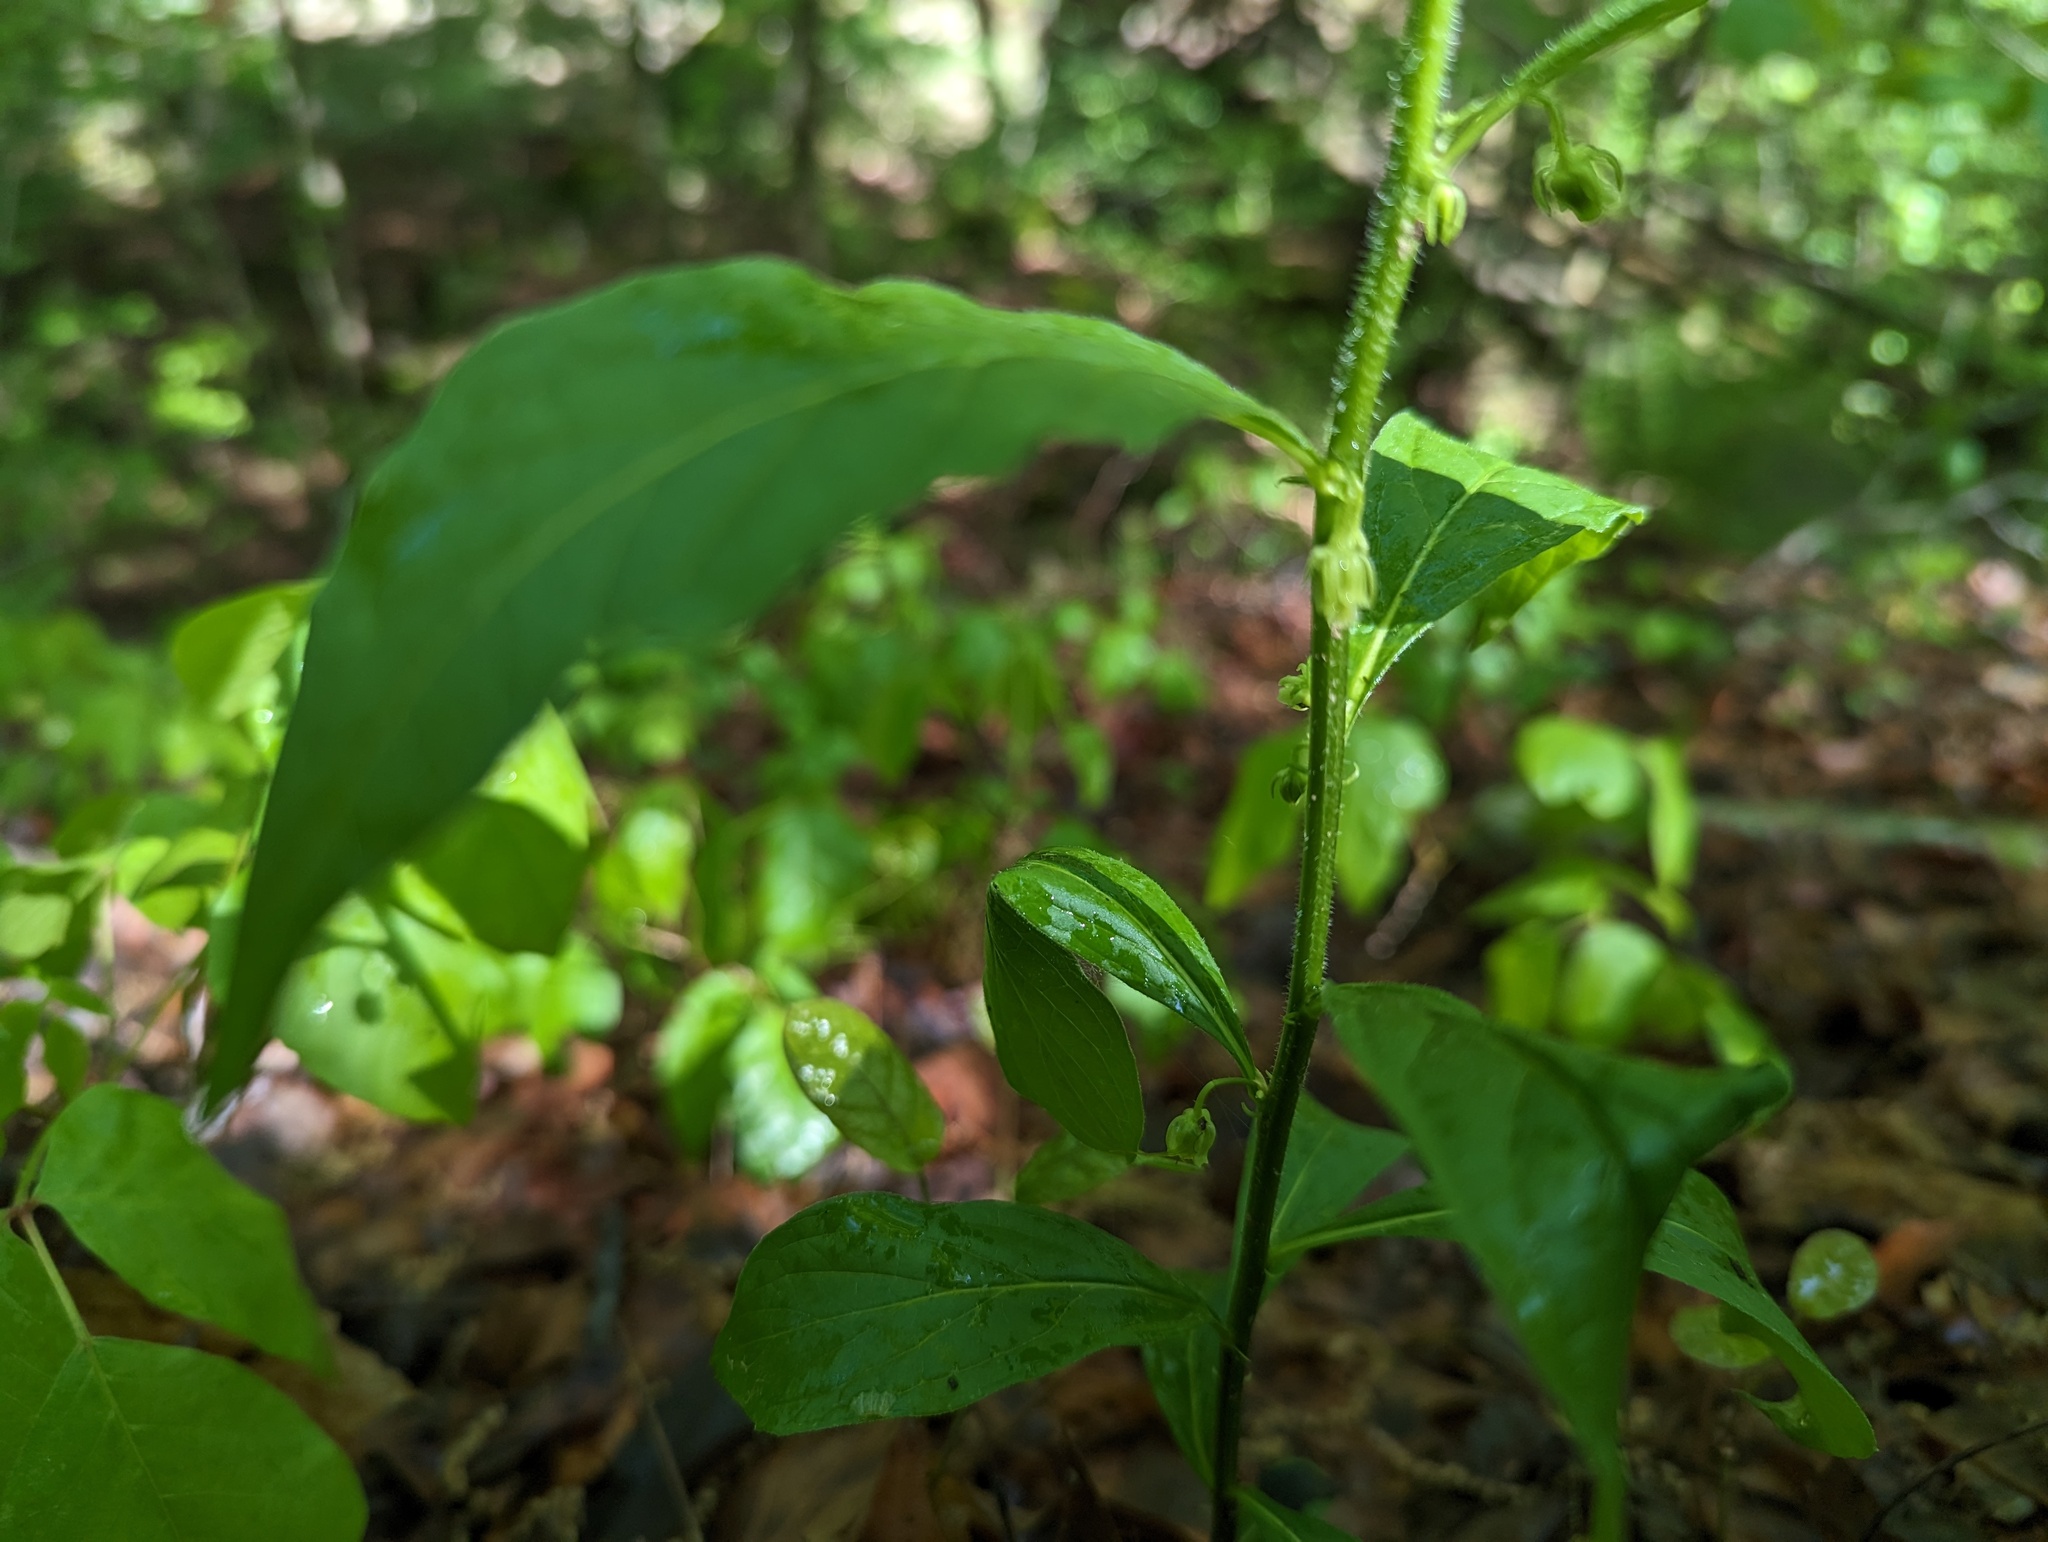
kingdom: Plantae
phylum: Tracheophyta
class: Magnoliopsida
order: Malpighiales
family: Violaceae
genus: Cubelium
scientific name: Cubelium concolor
